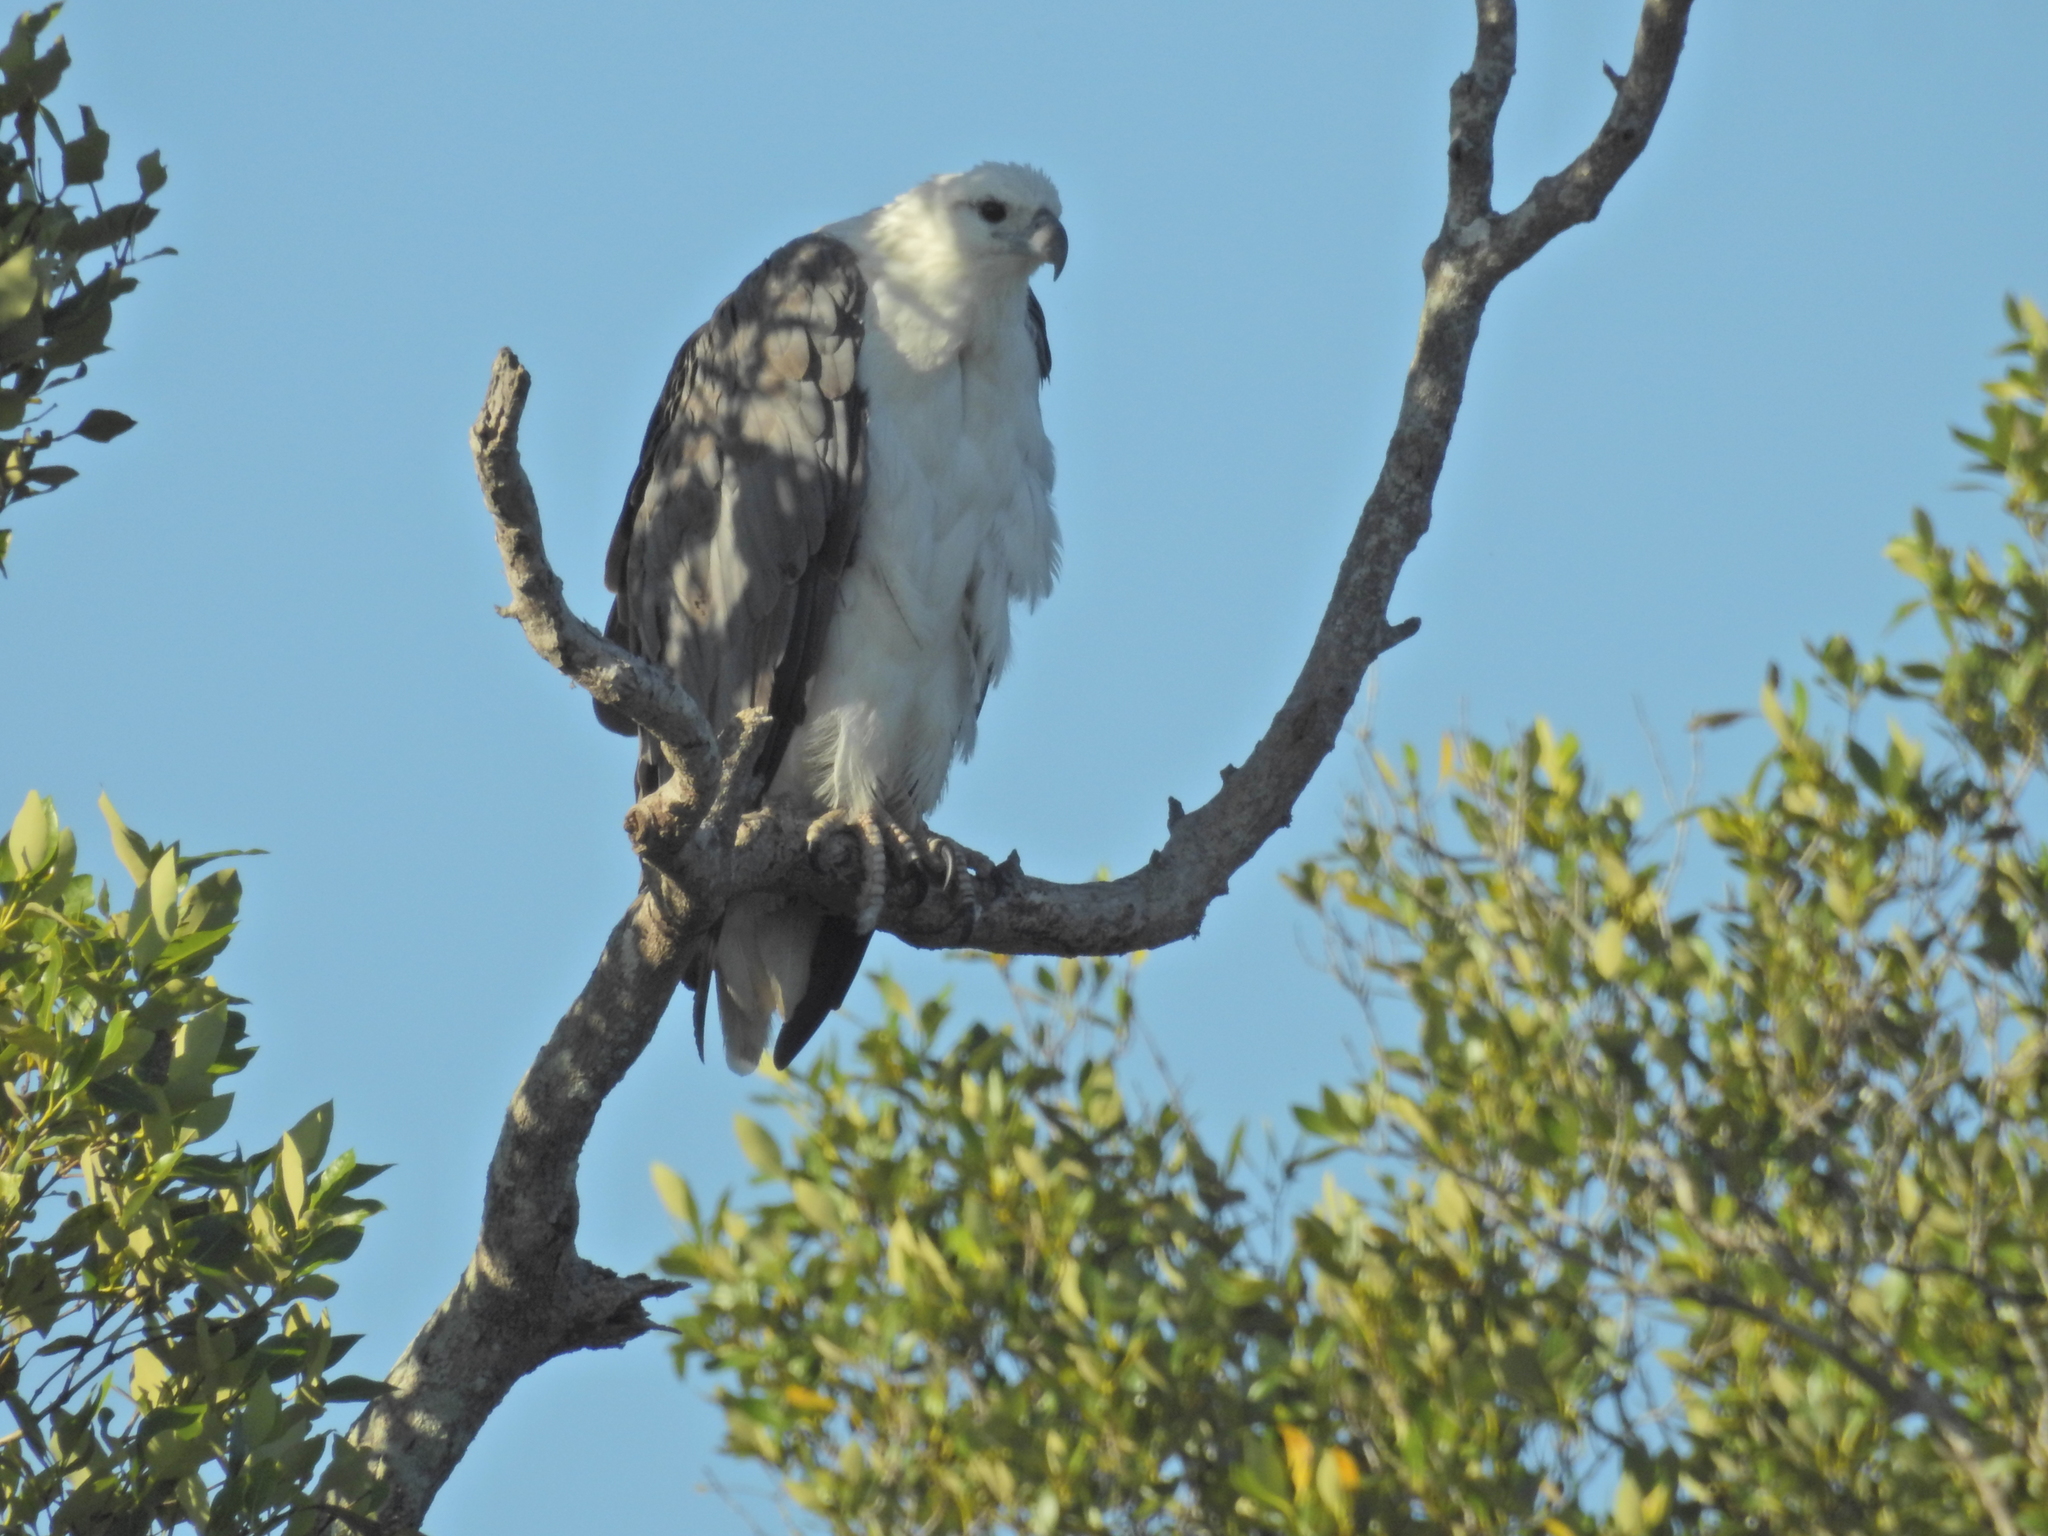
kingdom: Animalia
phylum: Chordata
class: Aves
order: Accipitriformes
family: Accipitridae
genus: Haliaeetus
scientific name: Haliaeetus leucogaster
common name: White-bellied sea eagle
